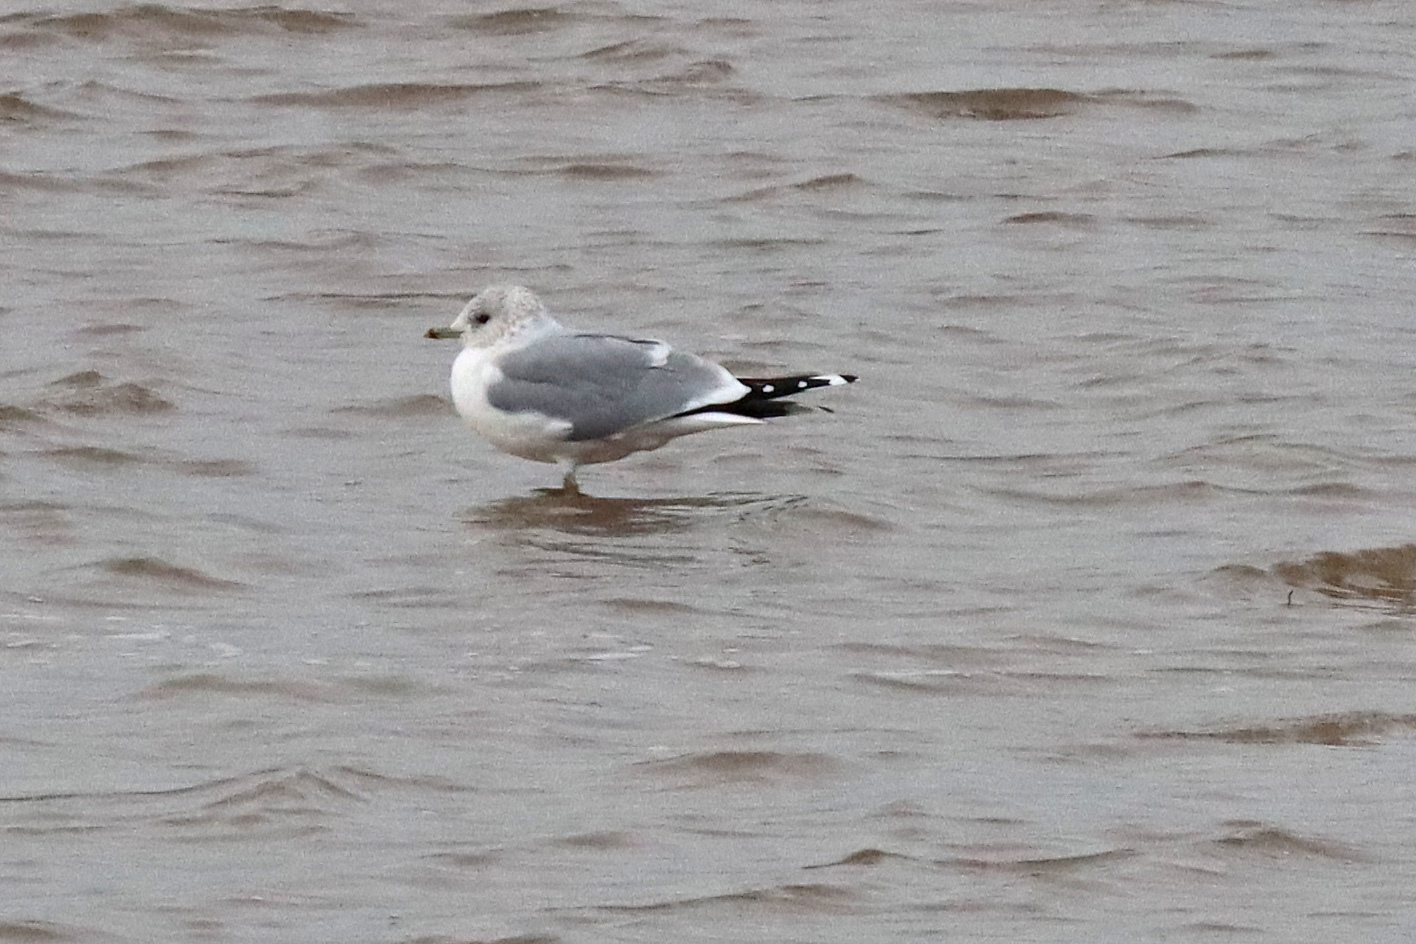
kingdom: Animalia
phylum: Chordata
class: Aves
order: Charadriiformes
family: Laridae
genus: Larus
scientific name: Larus canus
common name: Mew gull
